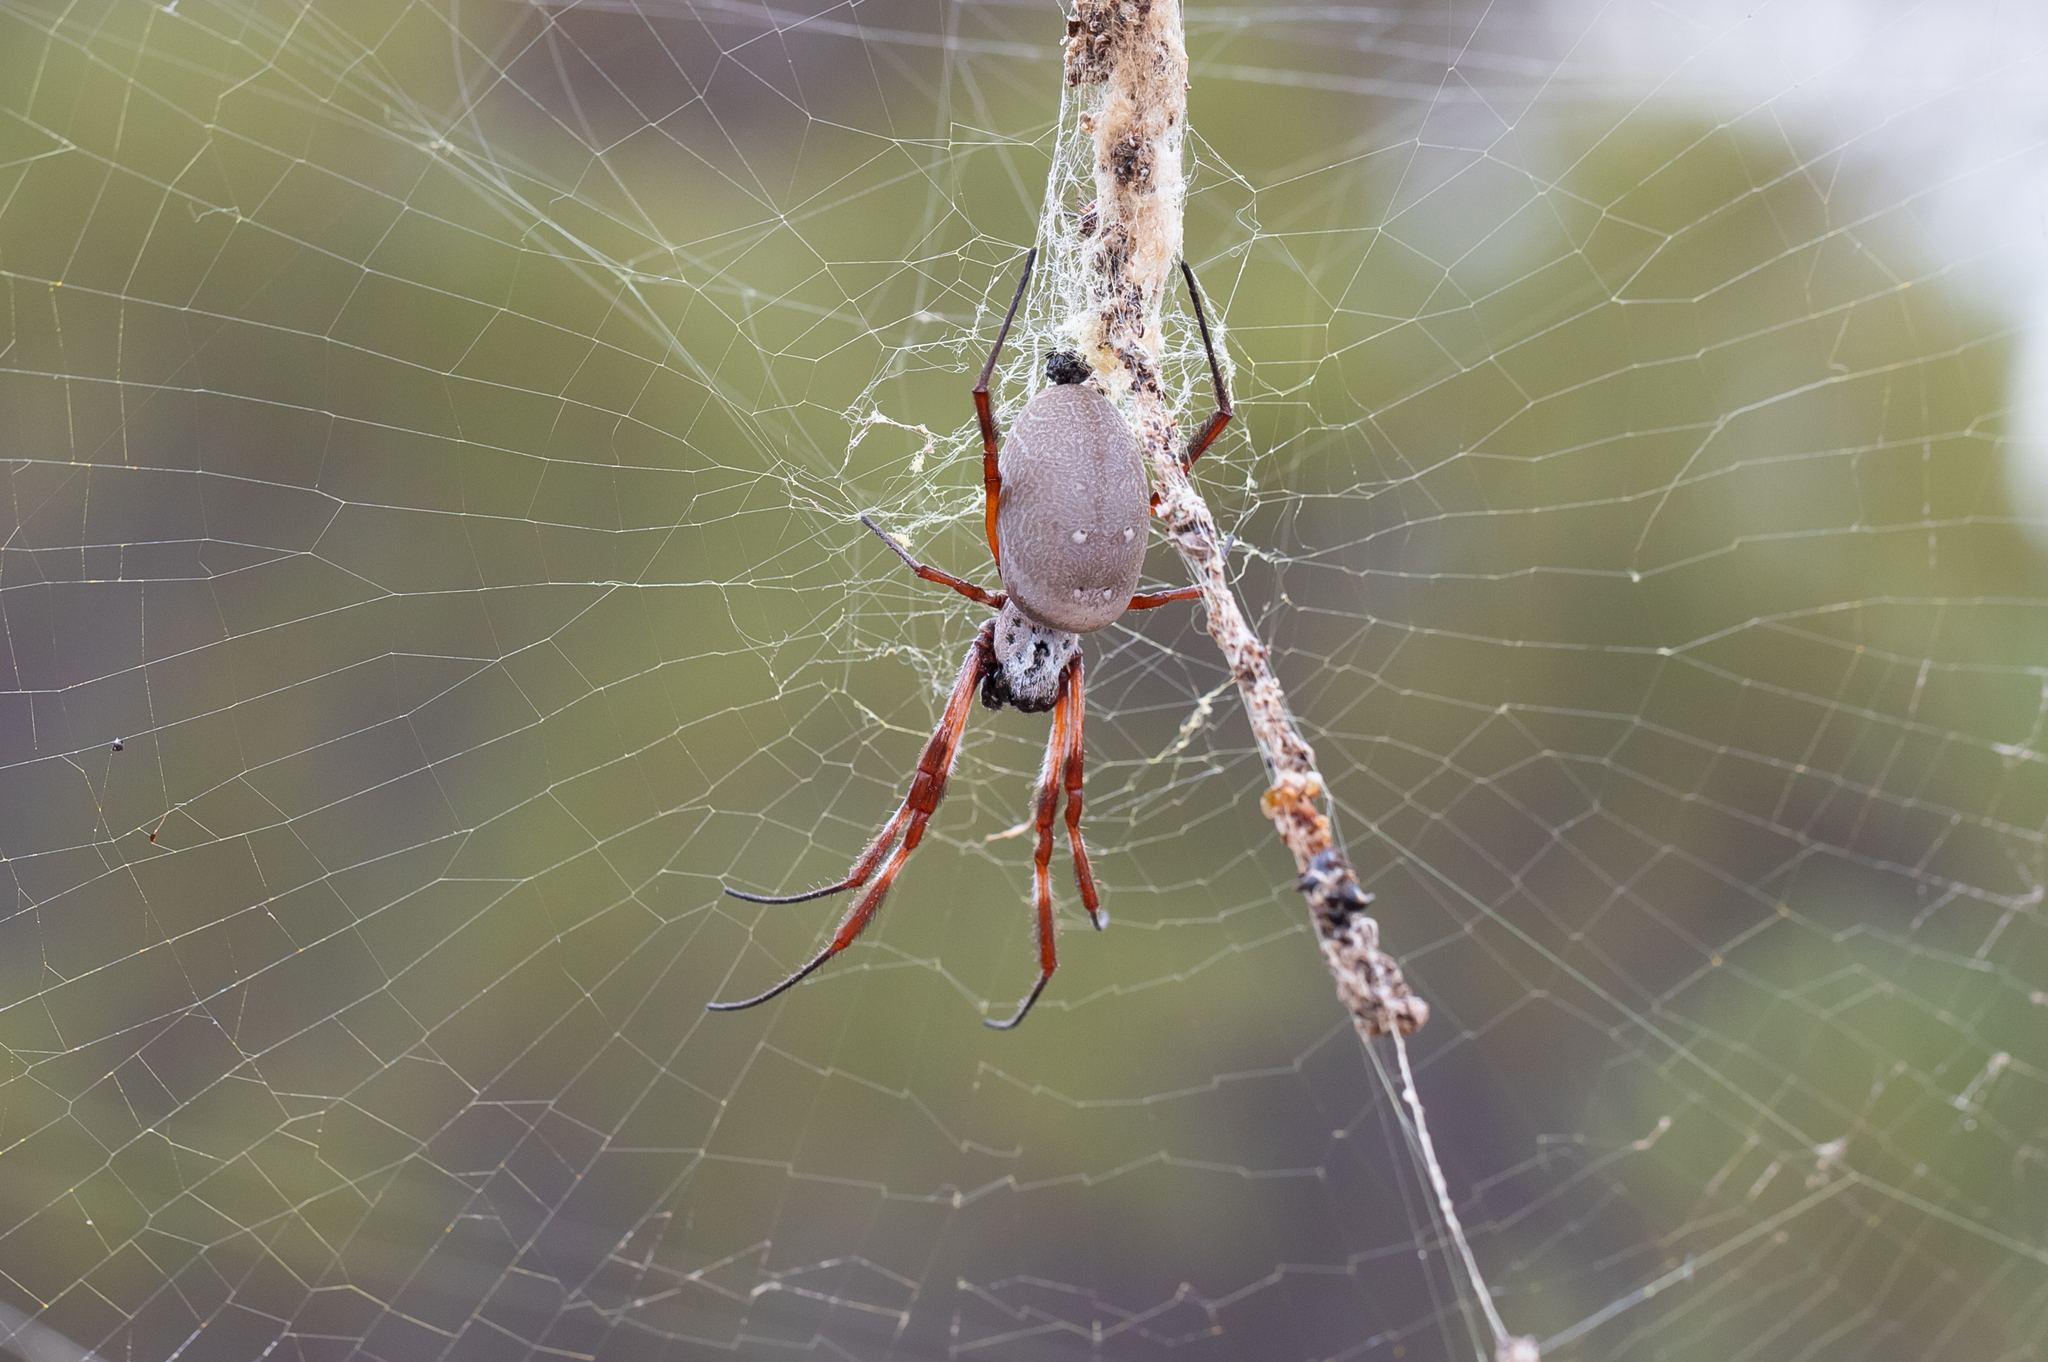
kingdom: Animalia
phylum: Arthropoda
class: Arachnida
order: Araneae
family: Araneidae
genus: Trichonephila
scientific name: Trichonephila edulis
